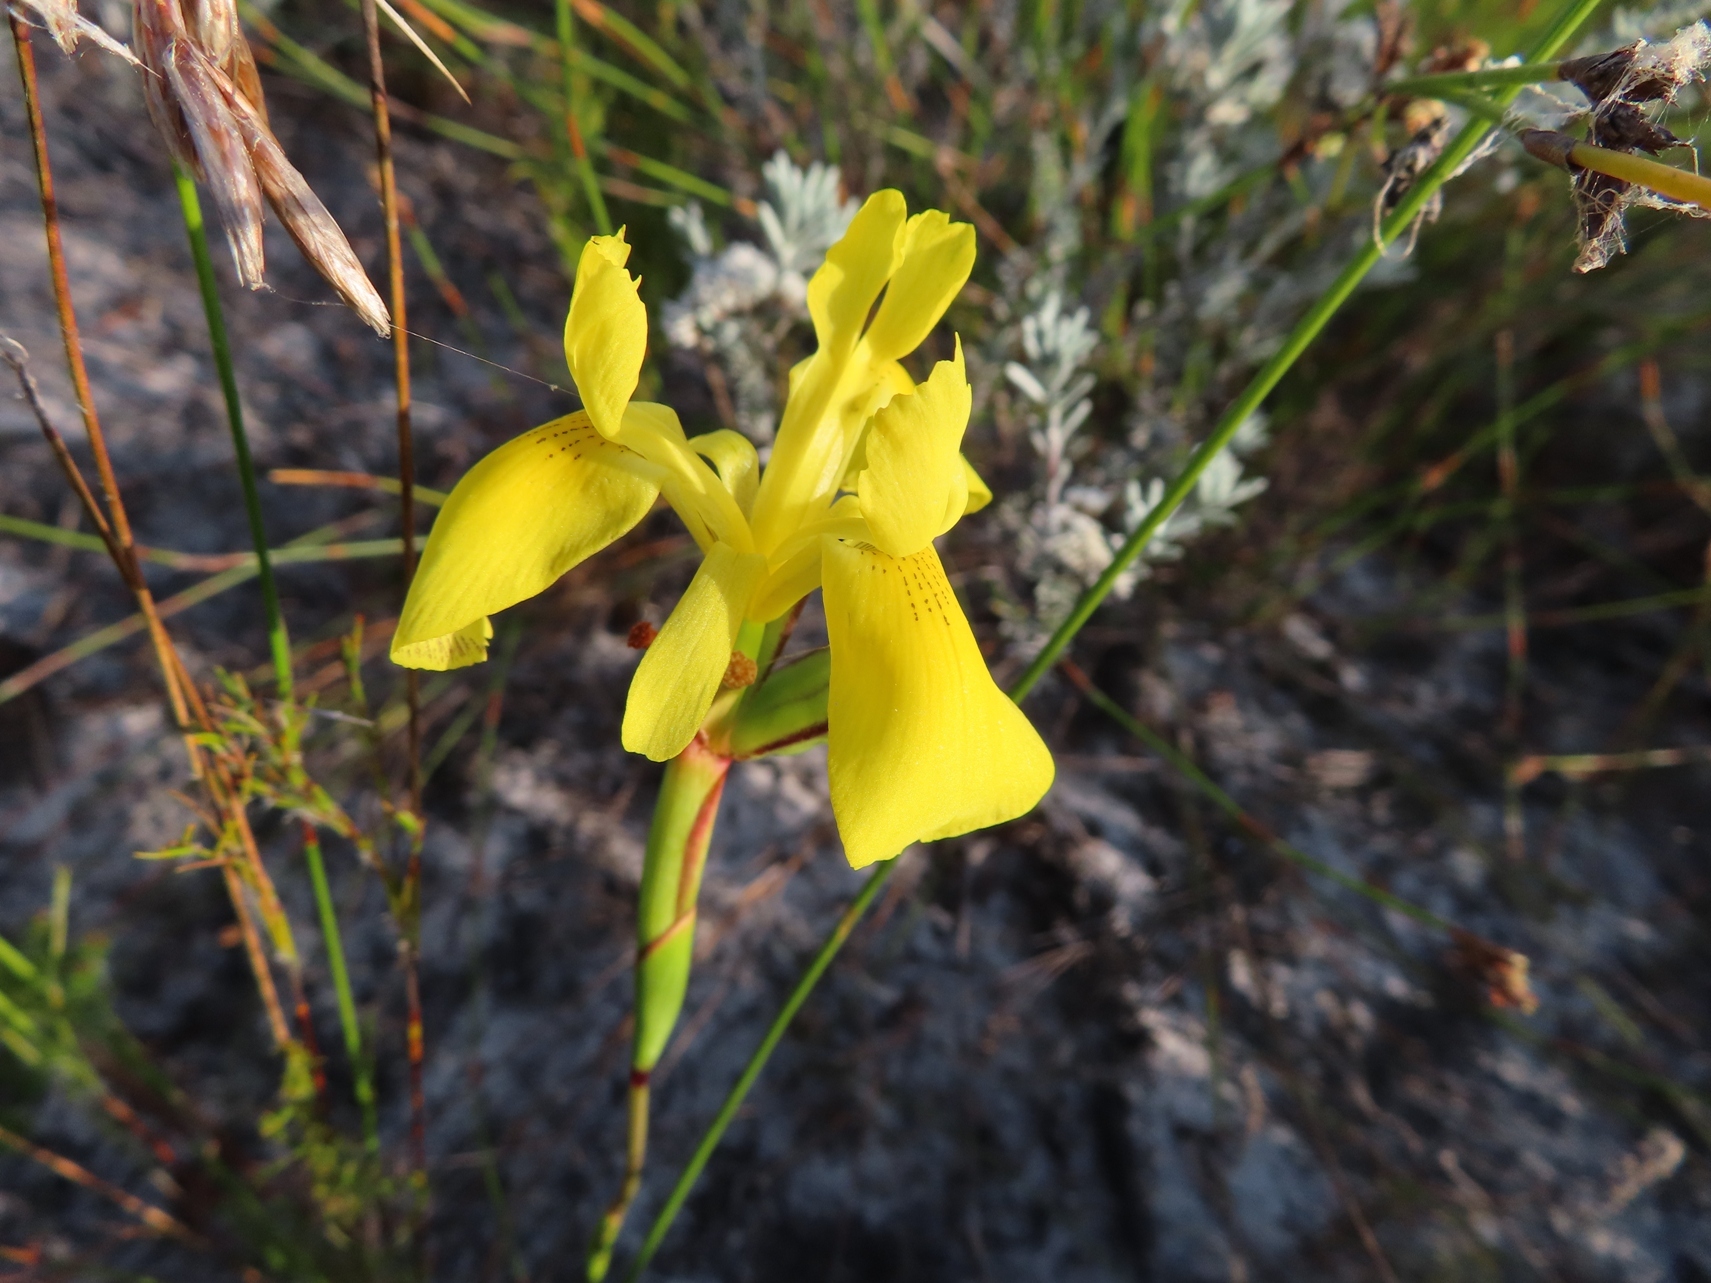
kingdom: Plantae
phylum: Tracheophyta
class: Liliopsida
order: Asparagales
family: Iridaceae
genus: Moraea
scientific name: Moraea neglecta
